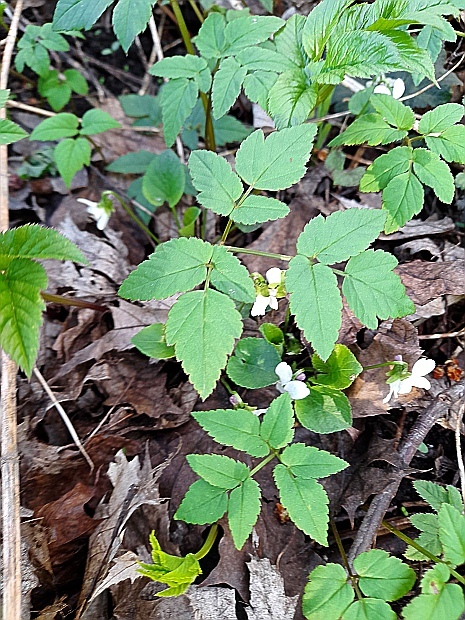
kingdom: Plantae
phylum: Tracheophyta
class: Magnoliopsida
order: Apiales
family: Apiaceae
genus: Aegopodium
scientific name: Aegopodium podagraria
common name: Ground-elder
